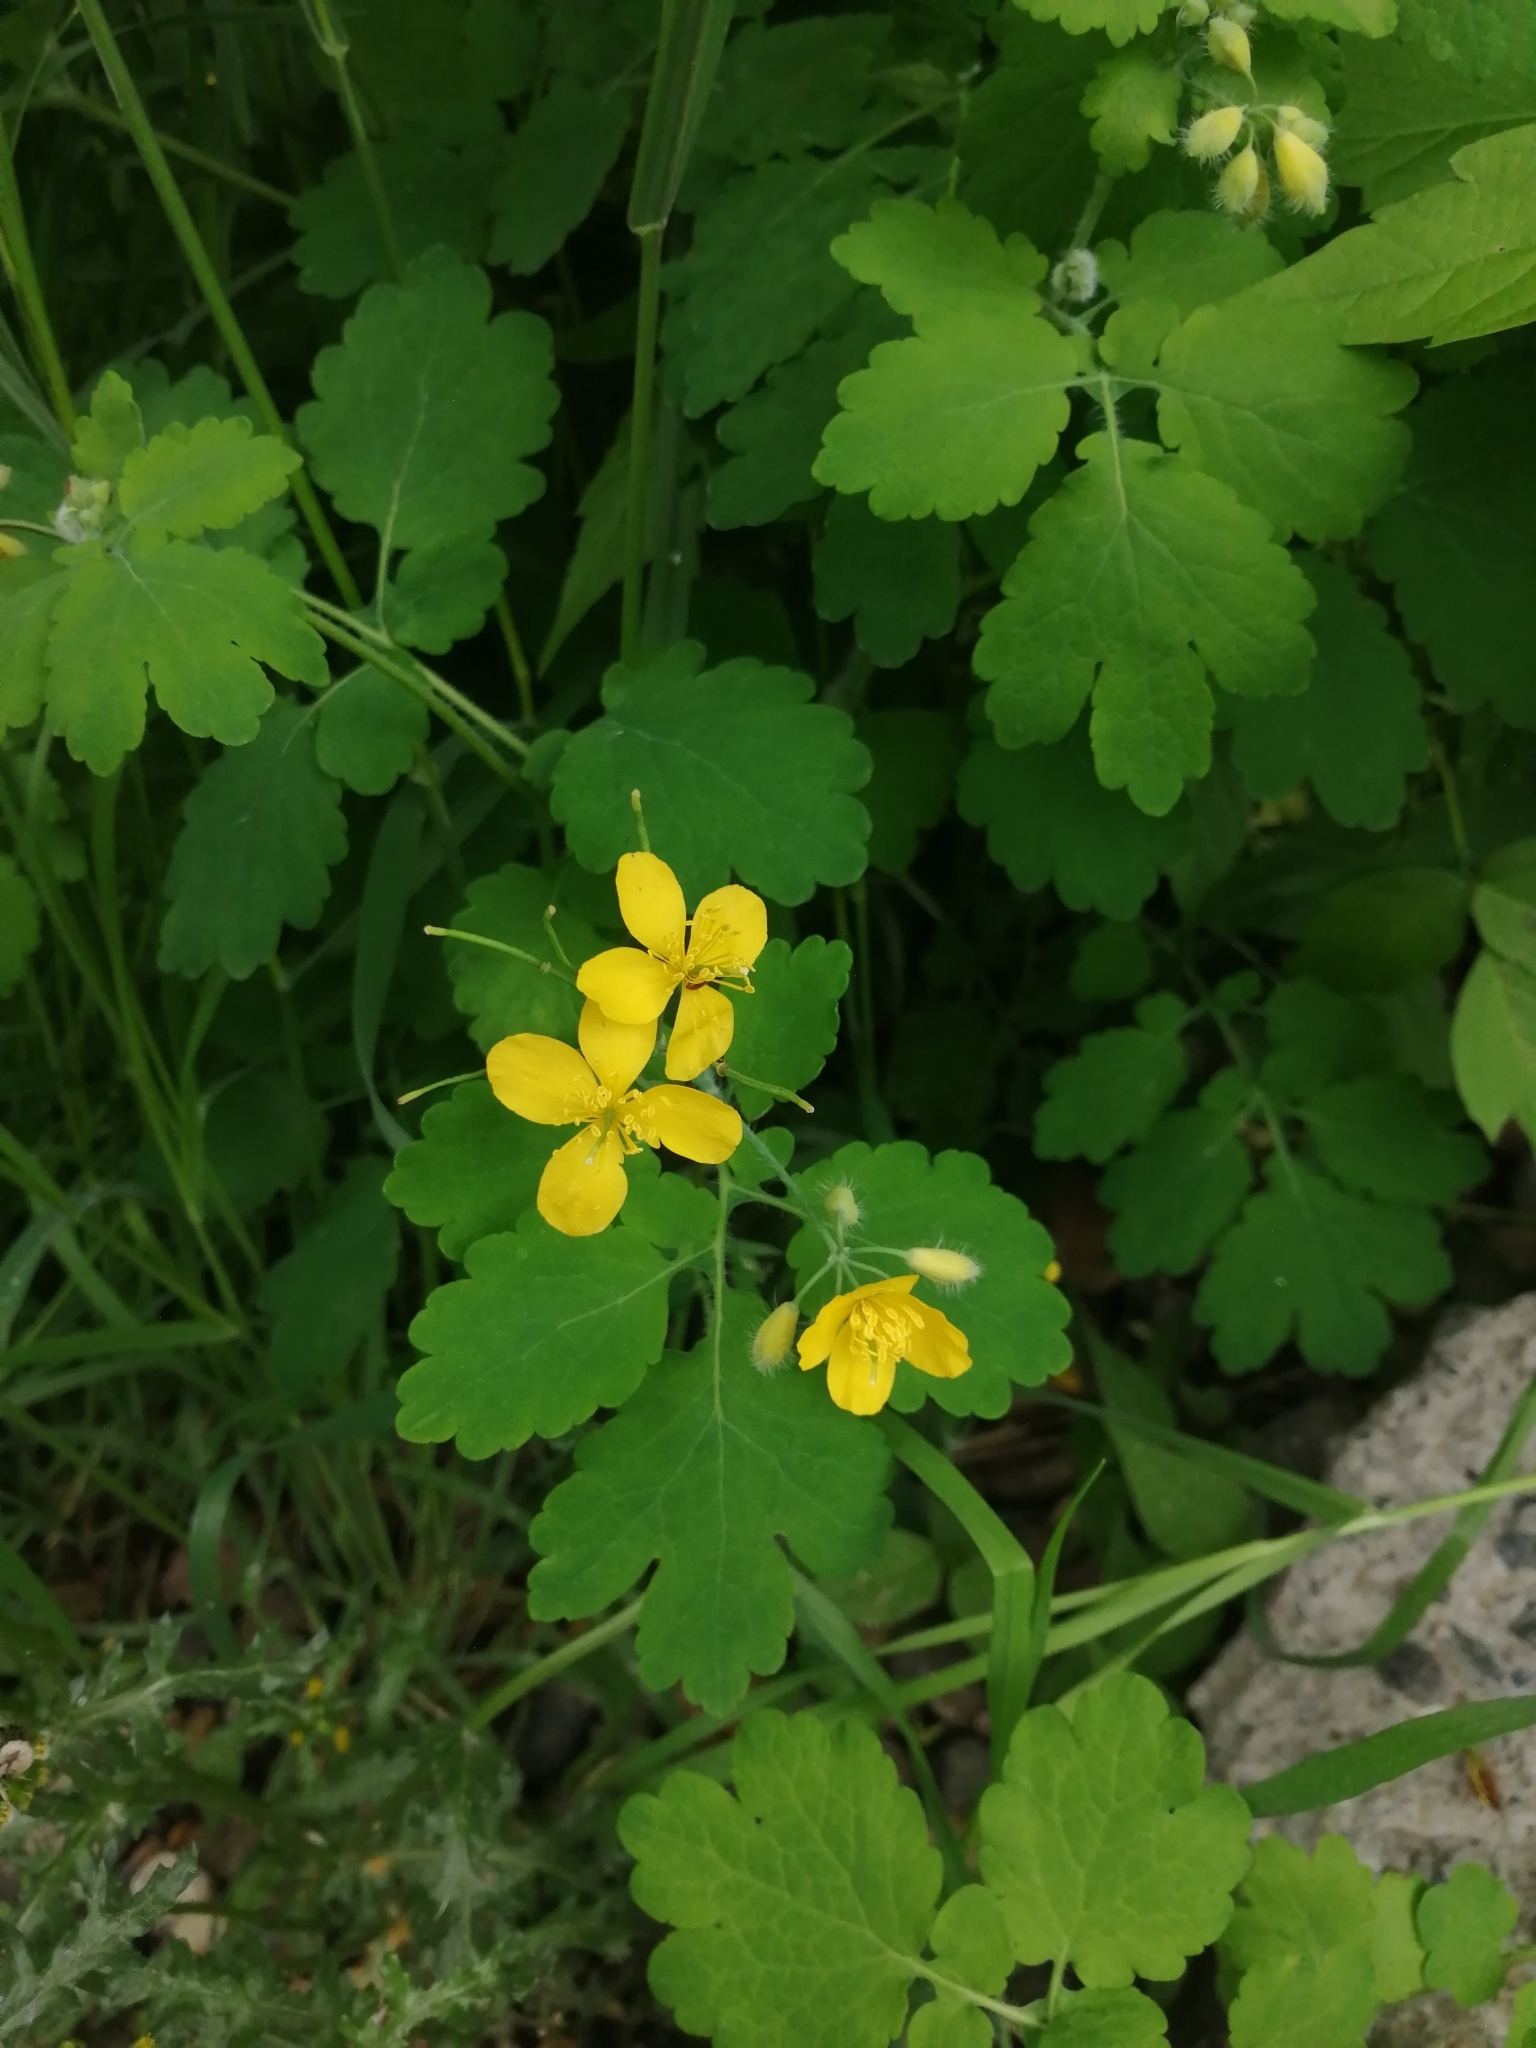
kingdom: Plantae
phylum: Tracheophyta
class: Magnoliopsida
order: Ranunculales
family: Papaveraceae
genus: Chelidonium
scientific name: Chelidonium majus
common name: Greater celandine
